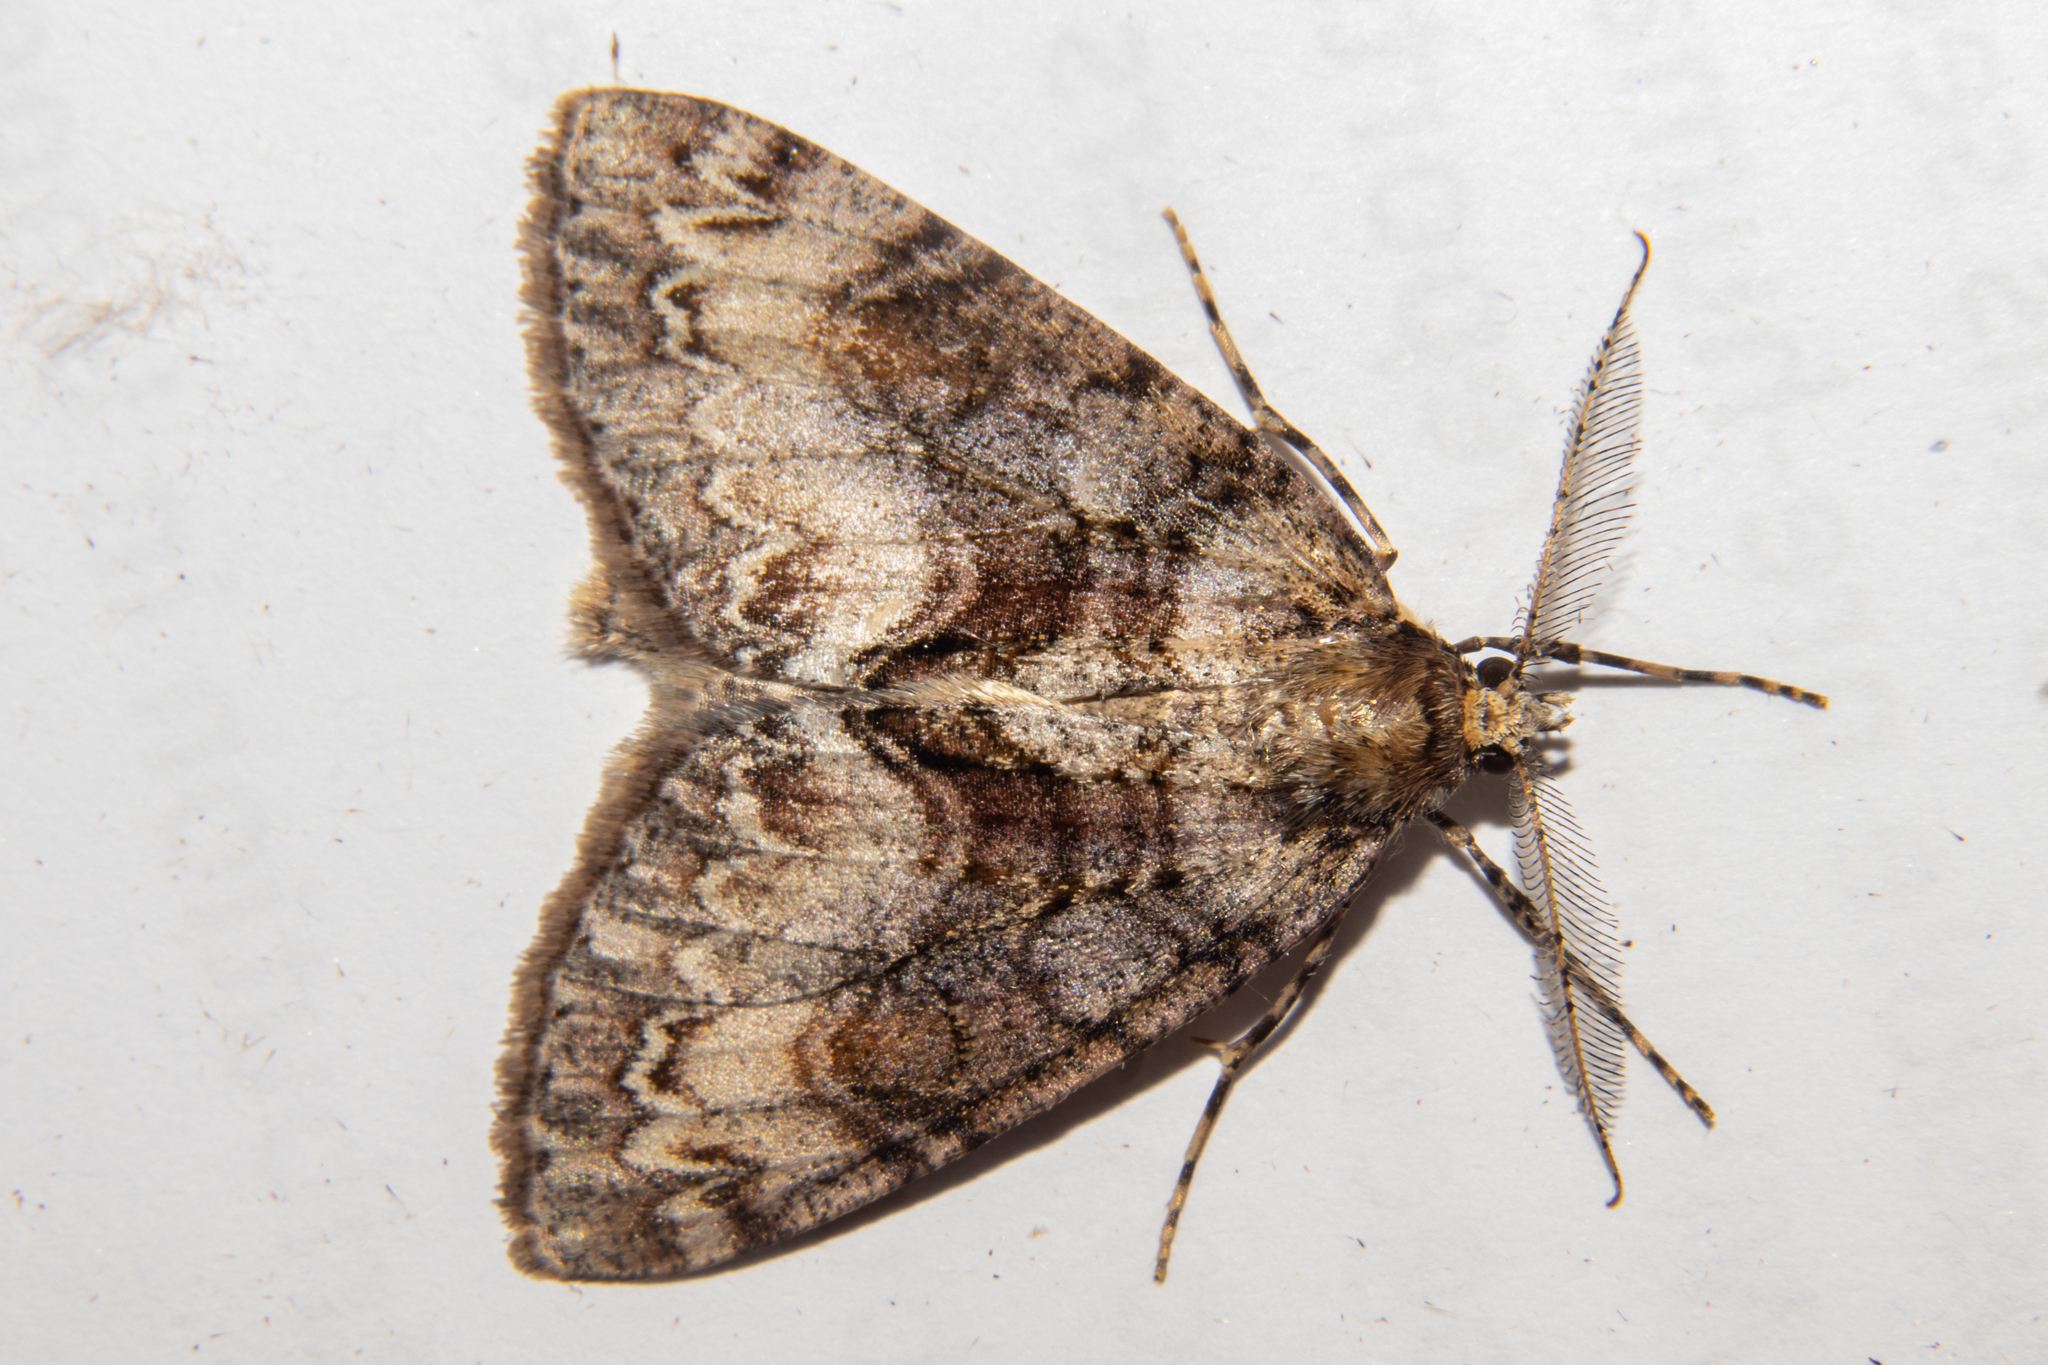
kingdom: Animalia
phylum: Arthropoda
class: Insecta
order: Lepidoptera
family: Geometridae
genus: Pseudocoremia
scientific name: Pseudocoremia suavis
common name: Common forest looper
